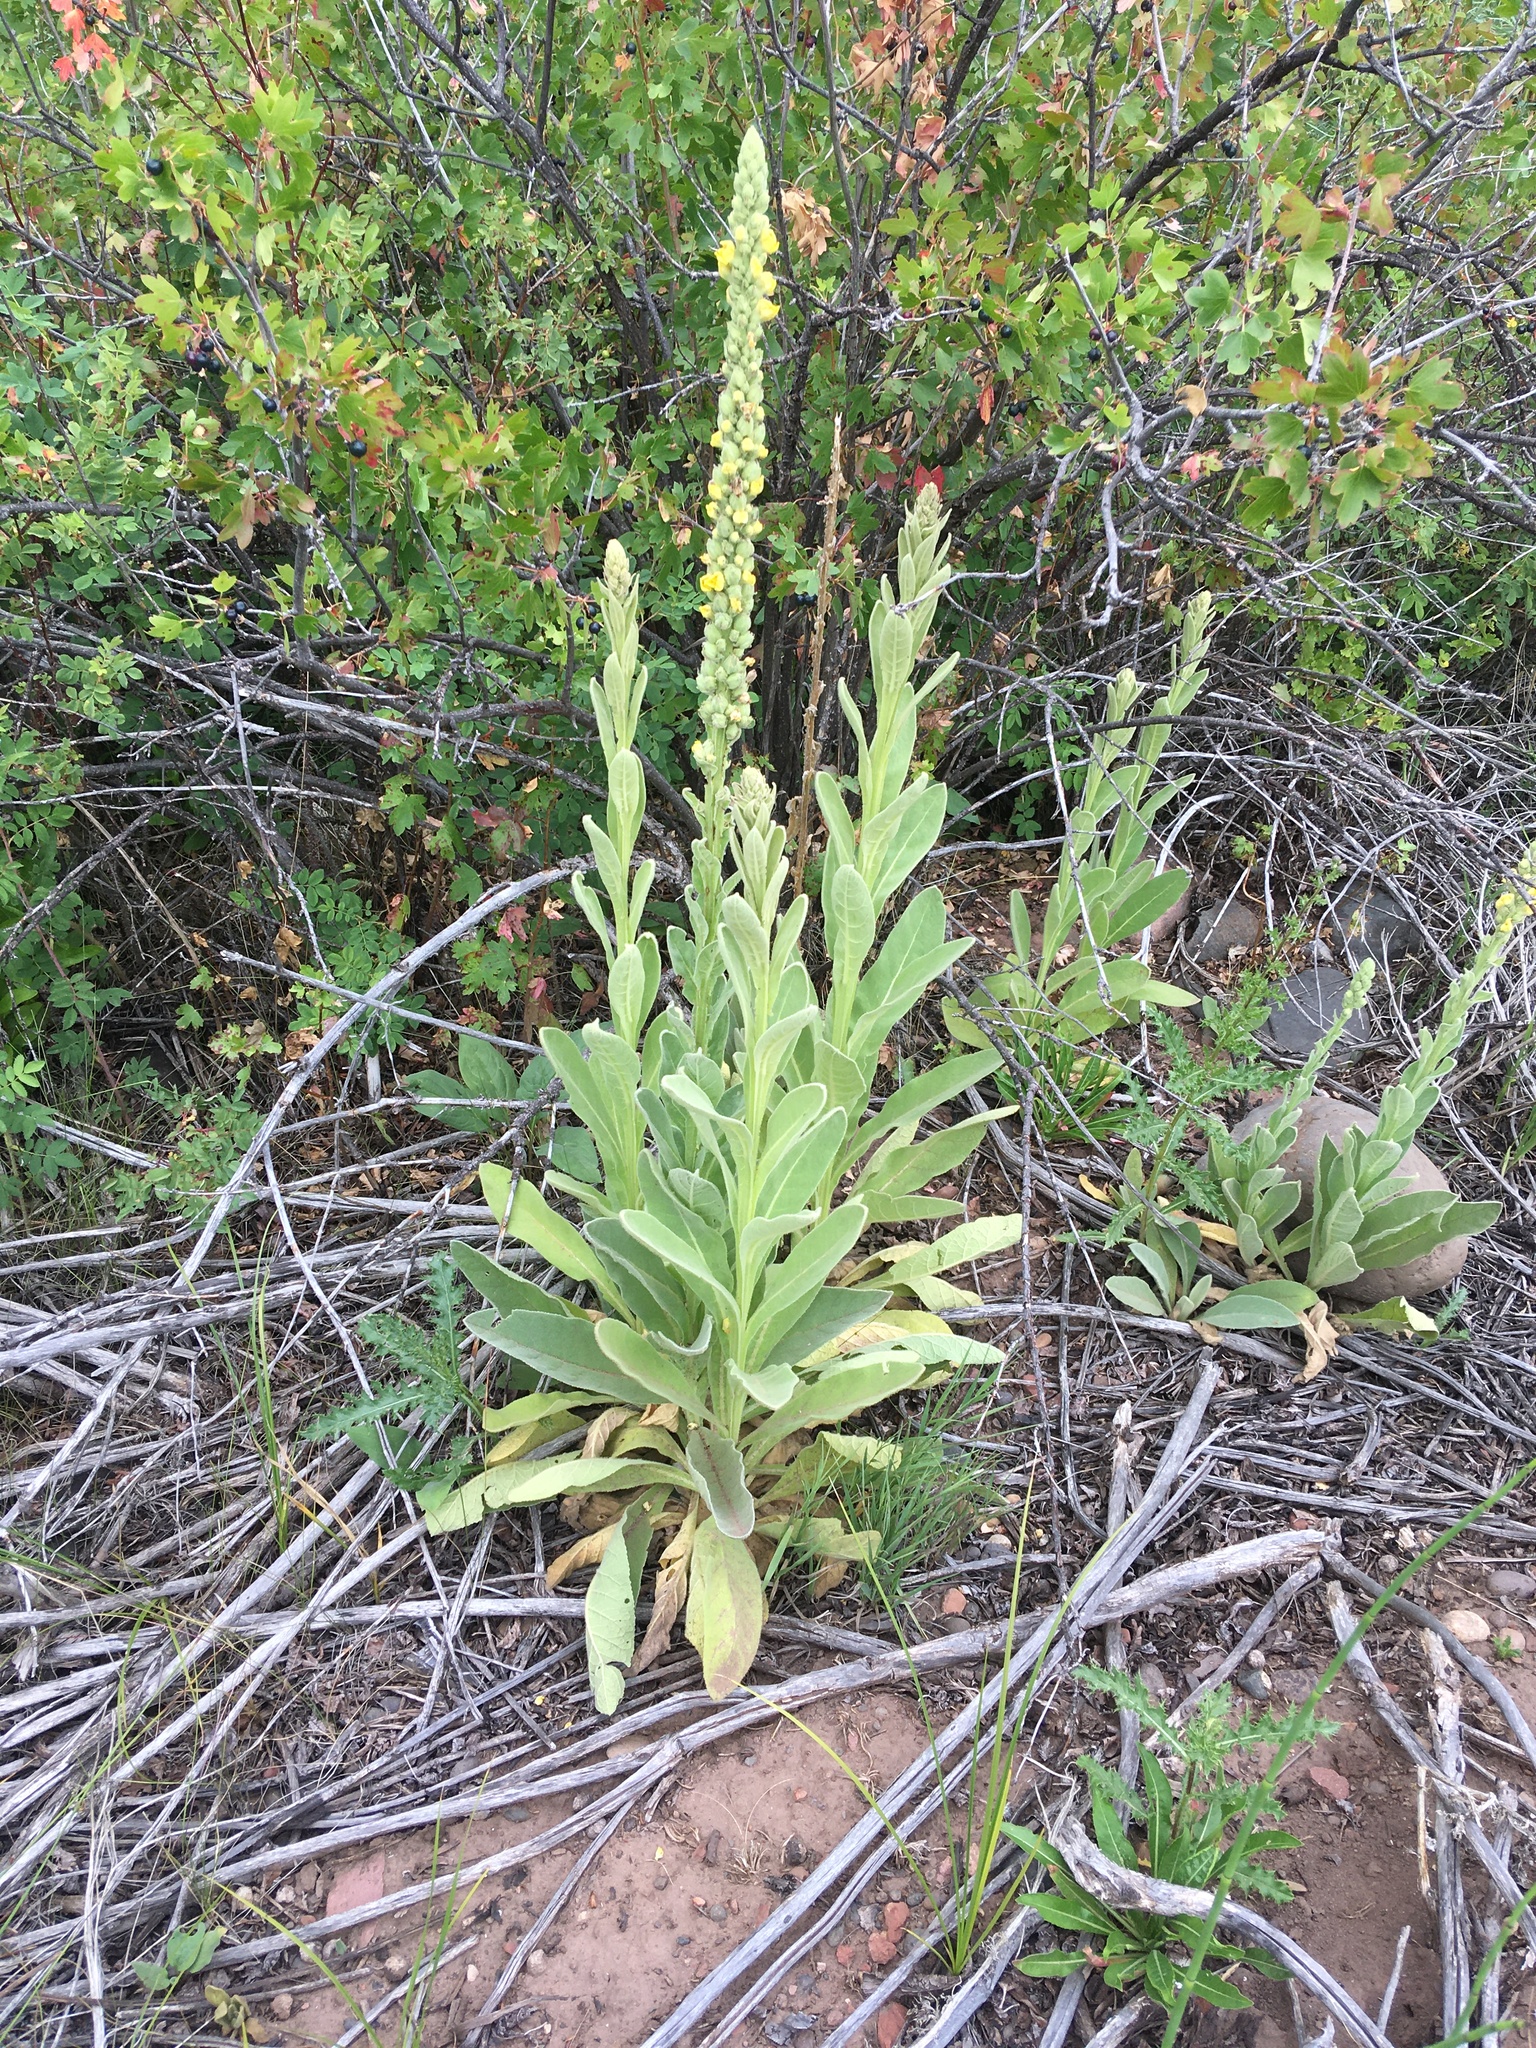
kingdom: Plantae
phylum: Tracheophyta
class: Magnoliopsida
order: Lamiales
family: Scrophulariaceae
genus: Verbascum
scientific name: Verbascum thapsus
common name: Common mullein
